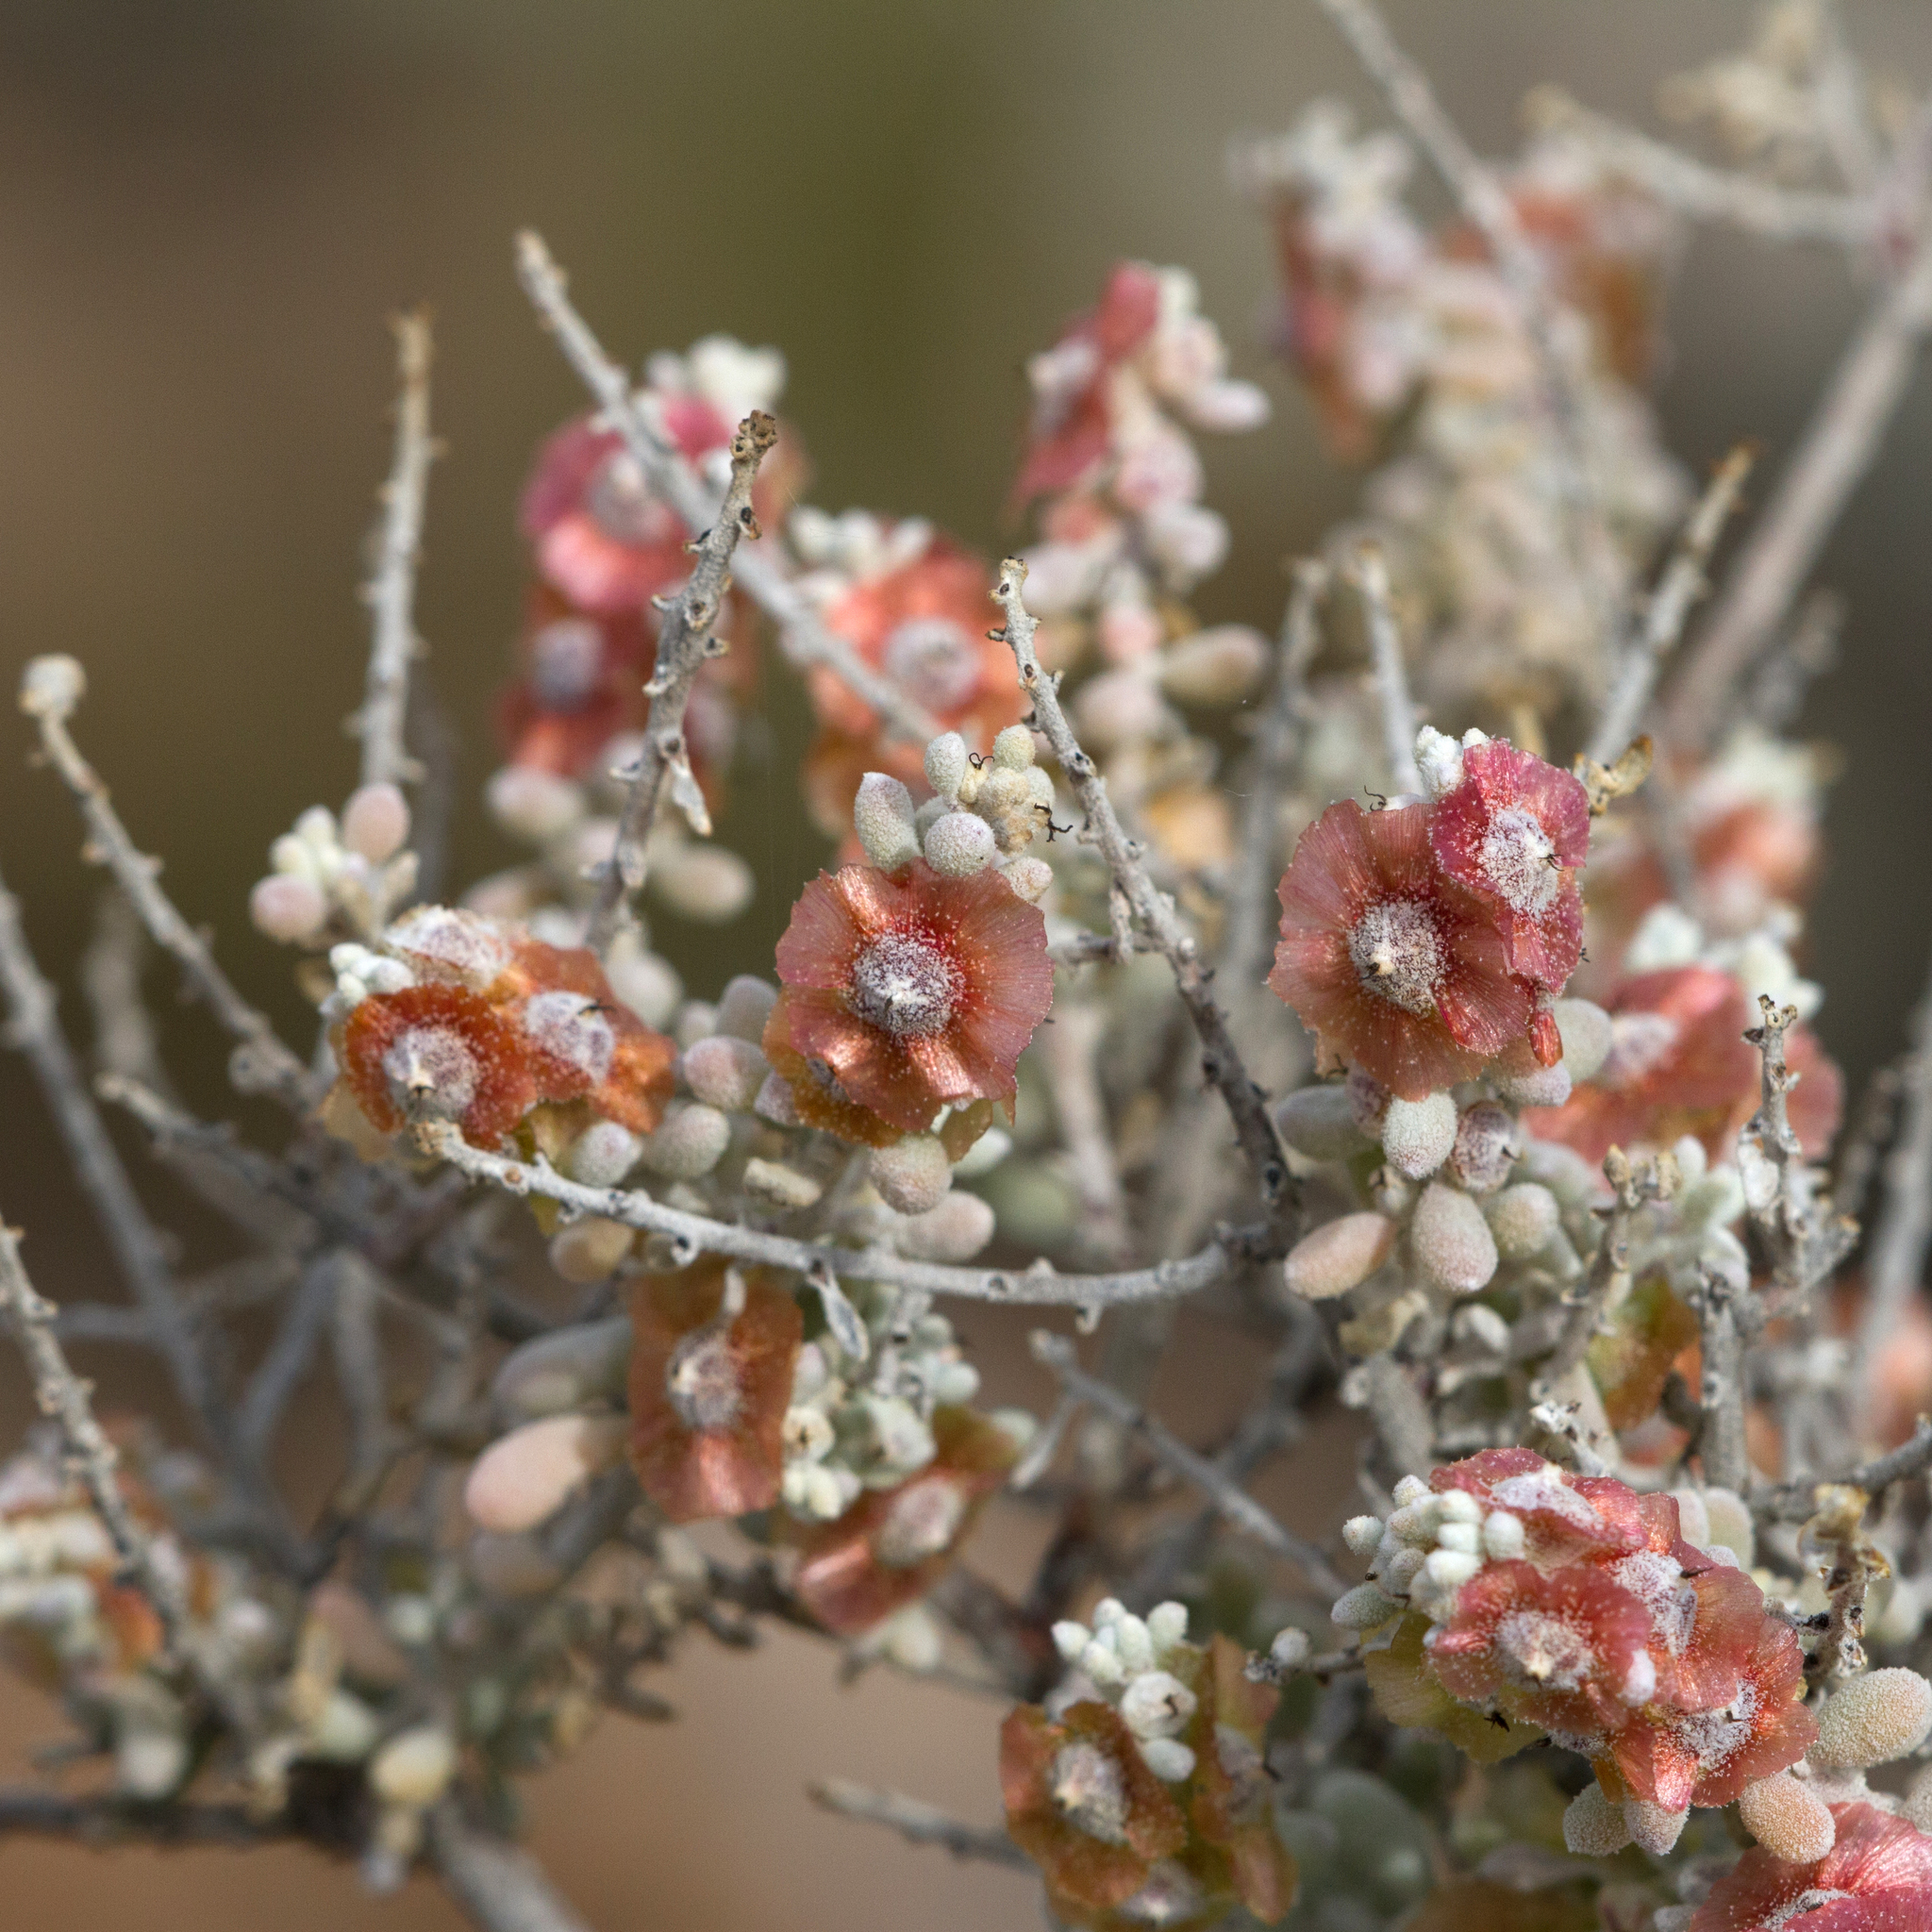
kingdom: Plantae
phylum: Tracheophyta
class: Magnoliopsida
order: Caryophyllales
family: Amaranthaceae
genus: Maireana
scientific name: Maireana astrotricha
